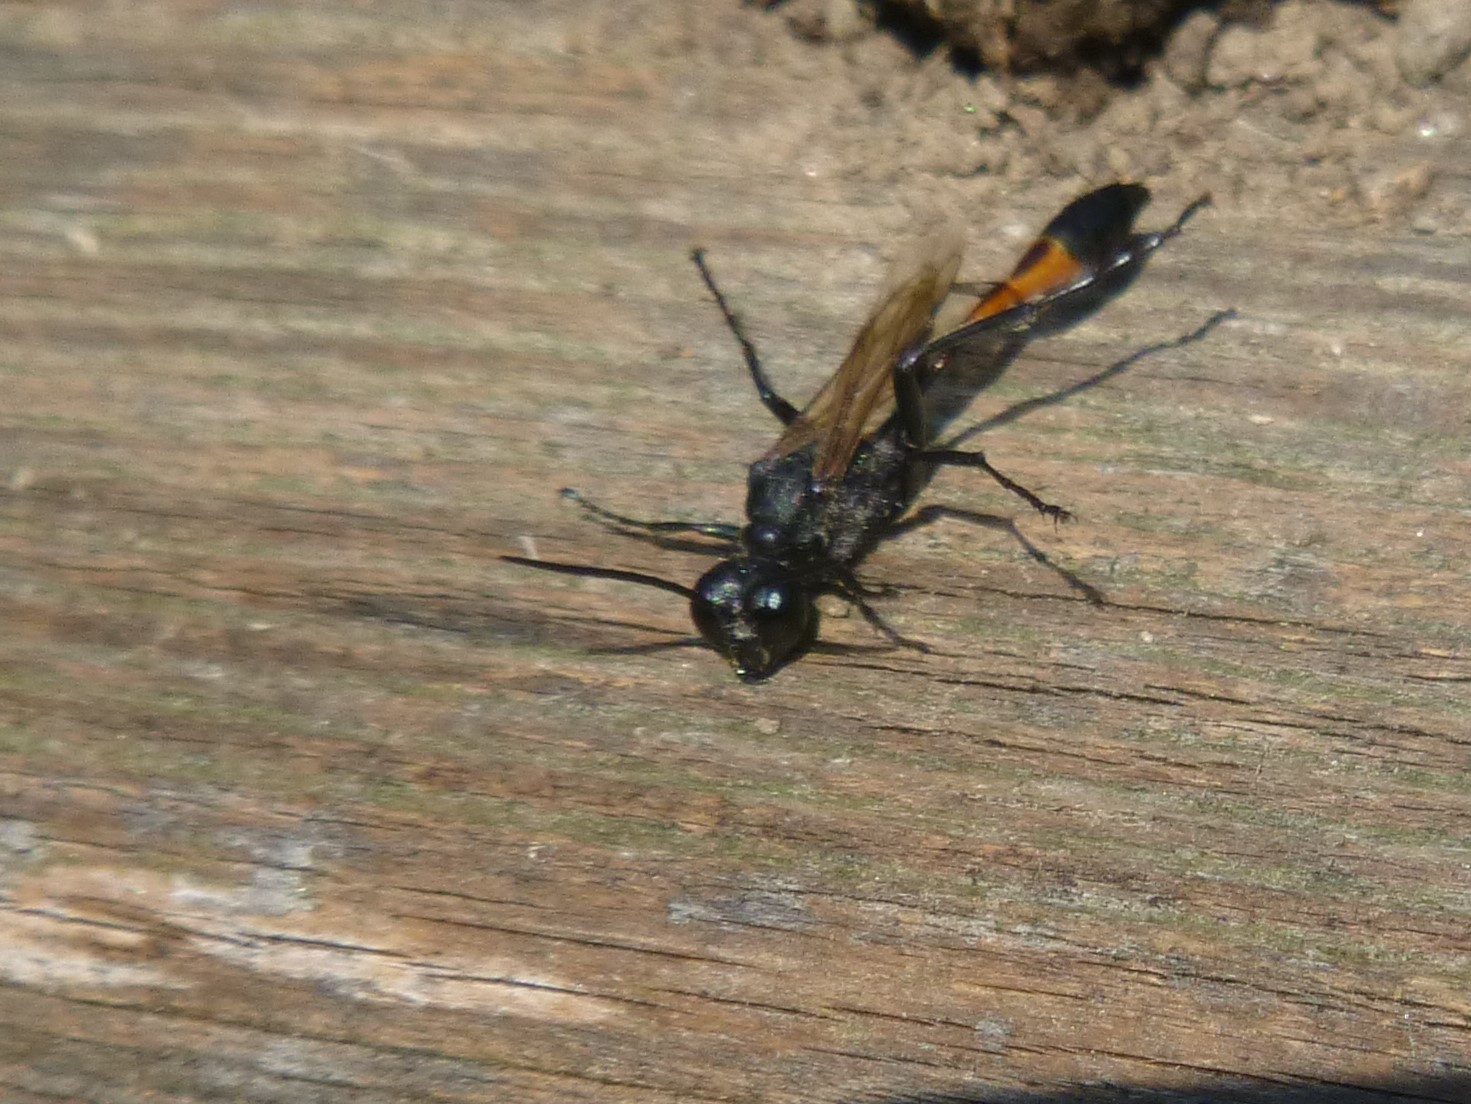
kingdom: Animalia
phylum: Arthropoda
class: Insecta
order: Hymenoptera
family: Sphecidae
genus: Ammophila
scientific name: Ammophila sabulosa
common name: Red banded sand wasp
